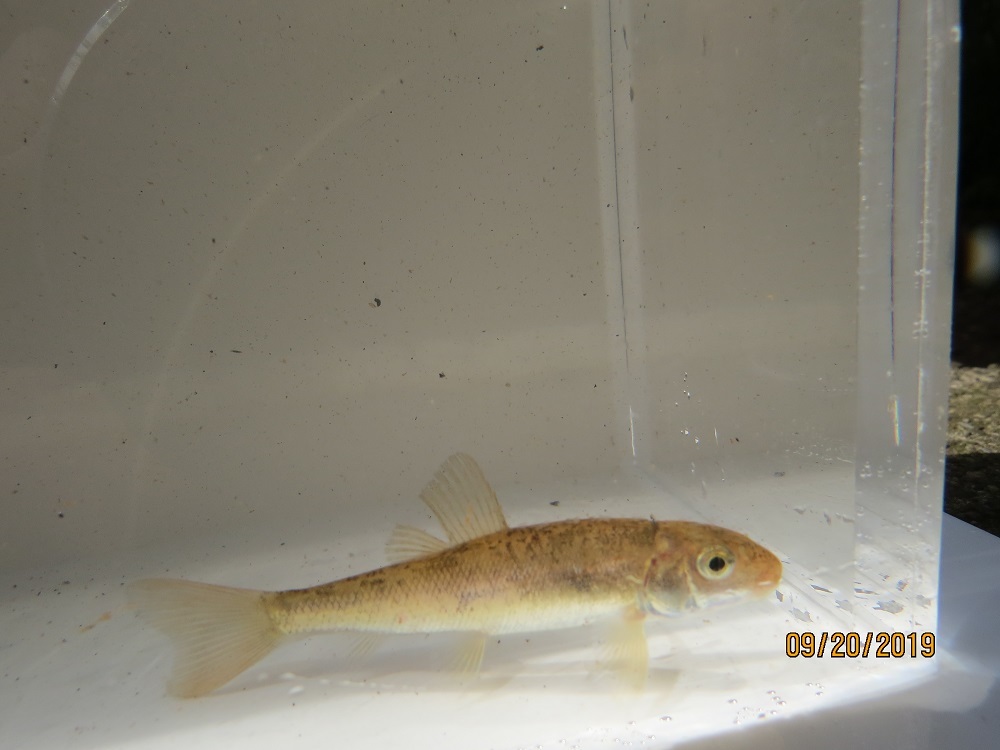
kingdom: Animalia
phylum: Chordata
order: Cypriniformes
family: Catostomidae
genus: Catostomus
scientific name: Catostomus commersonii
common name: White sucker
